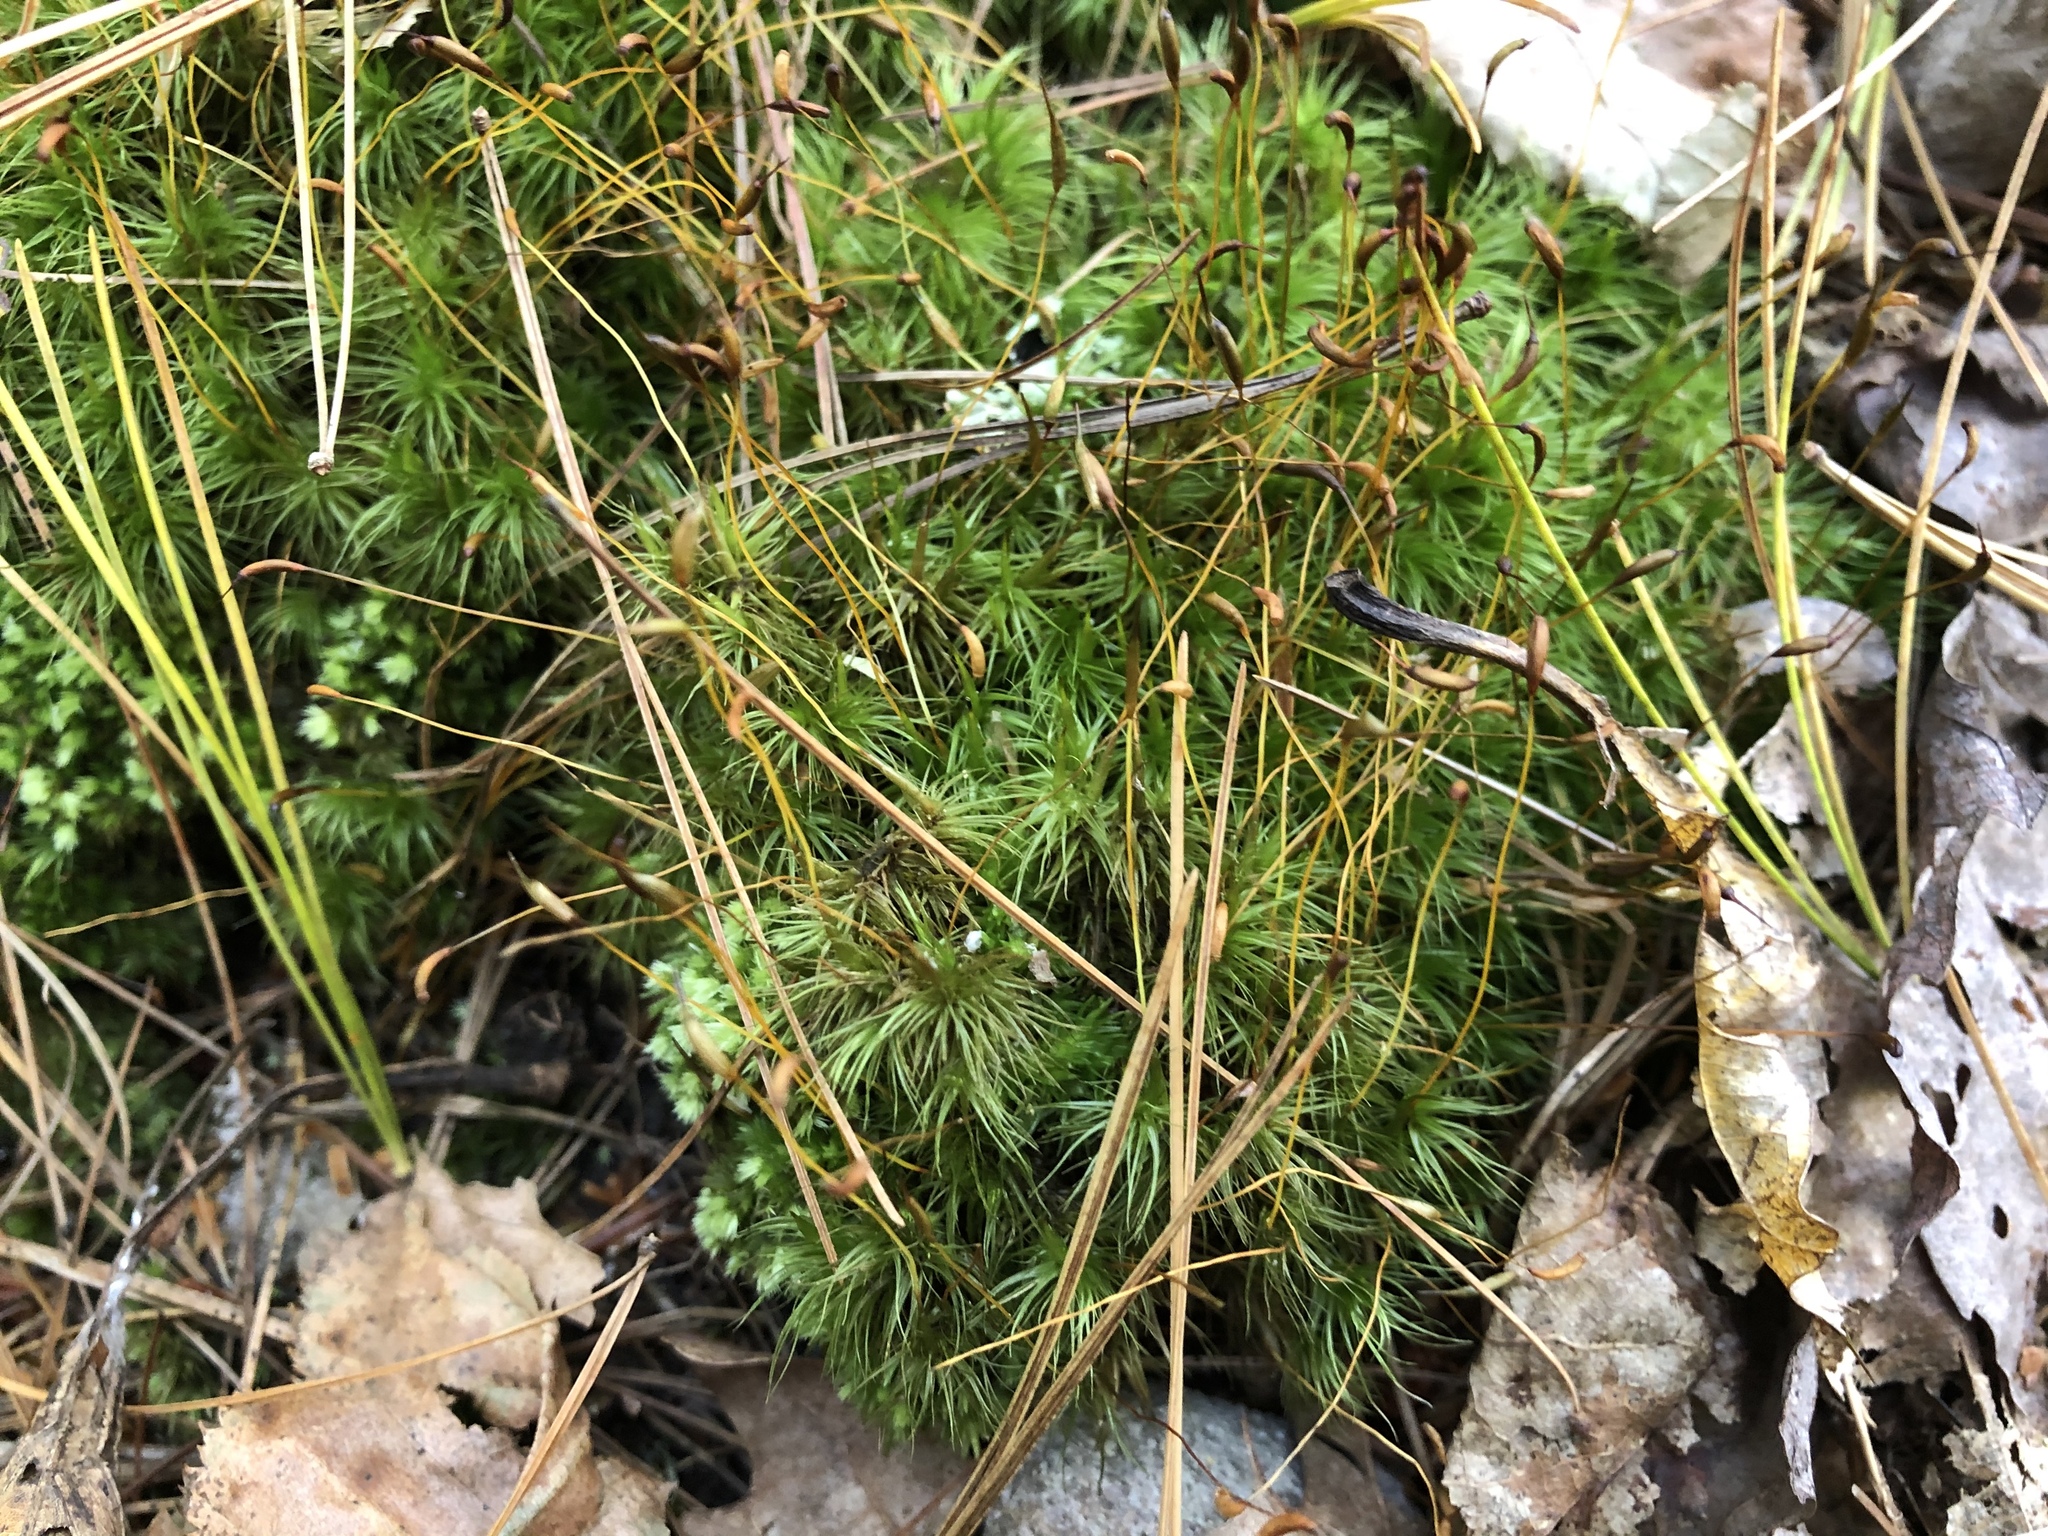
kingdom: Plantae
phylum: Bryophyta
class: Bryopsida
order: Dicranales
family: Dicranaceae
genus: Dicranum
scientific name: Dicranum scoparium
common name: Broom fork-moss
